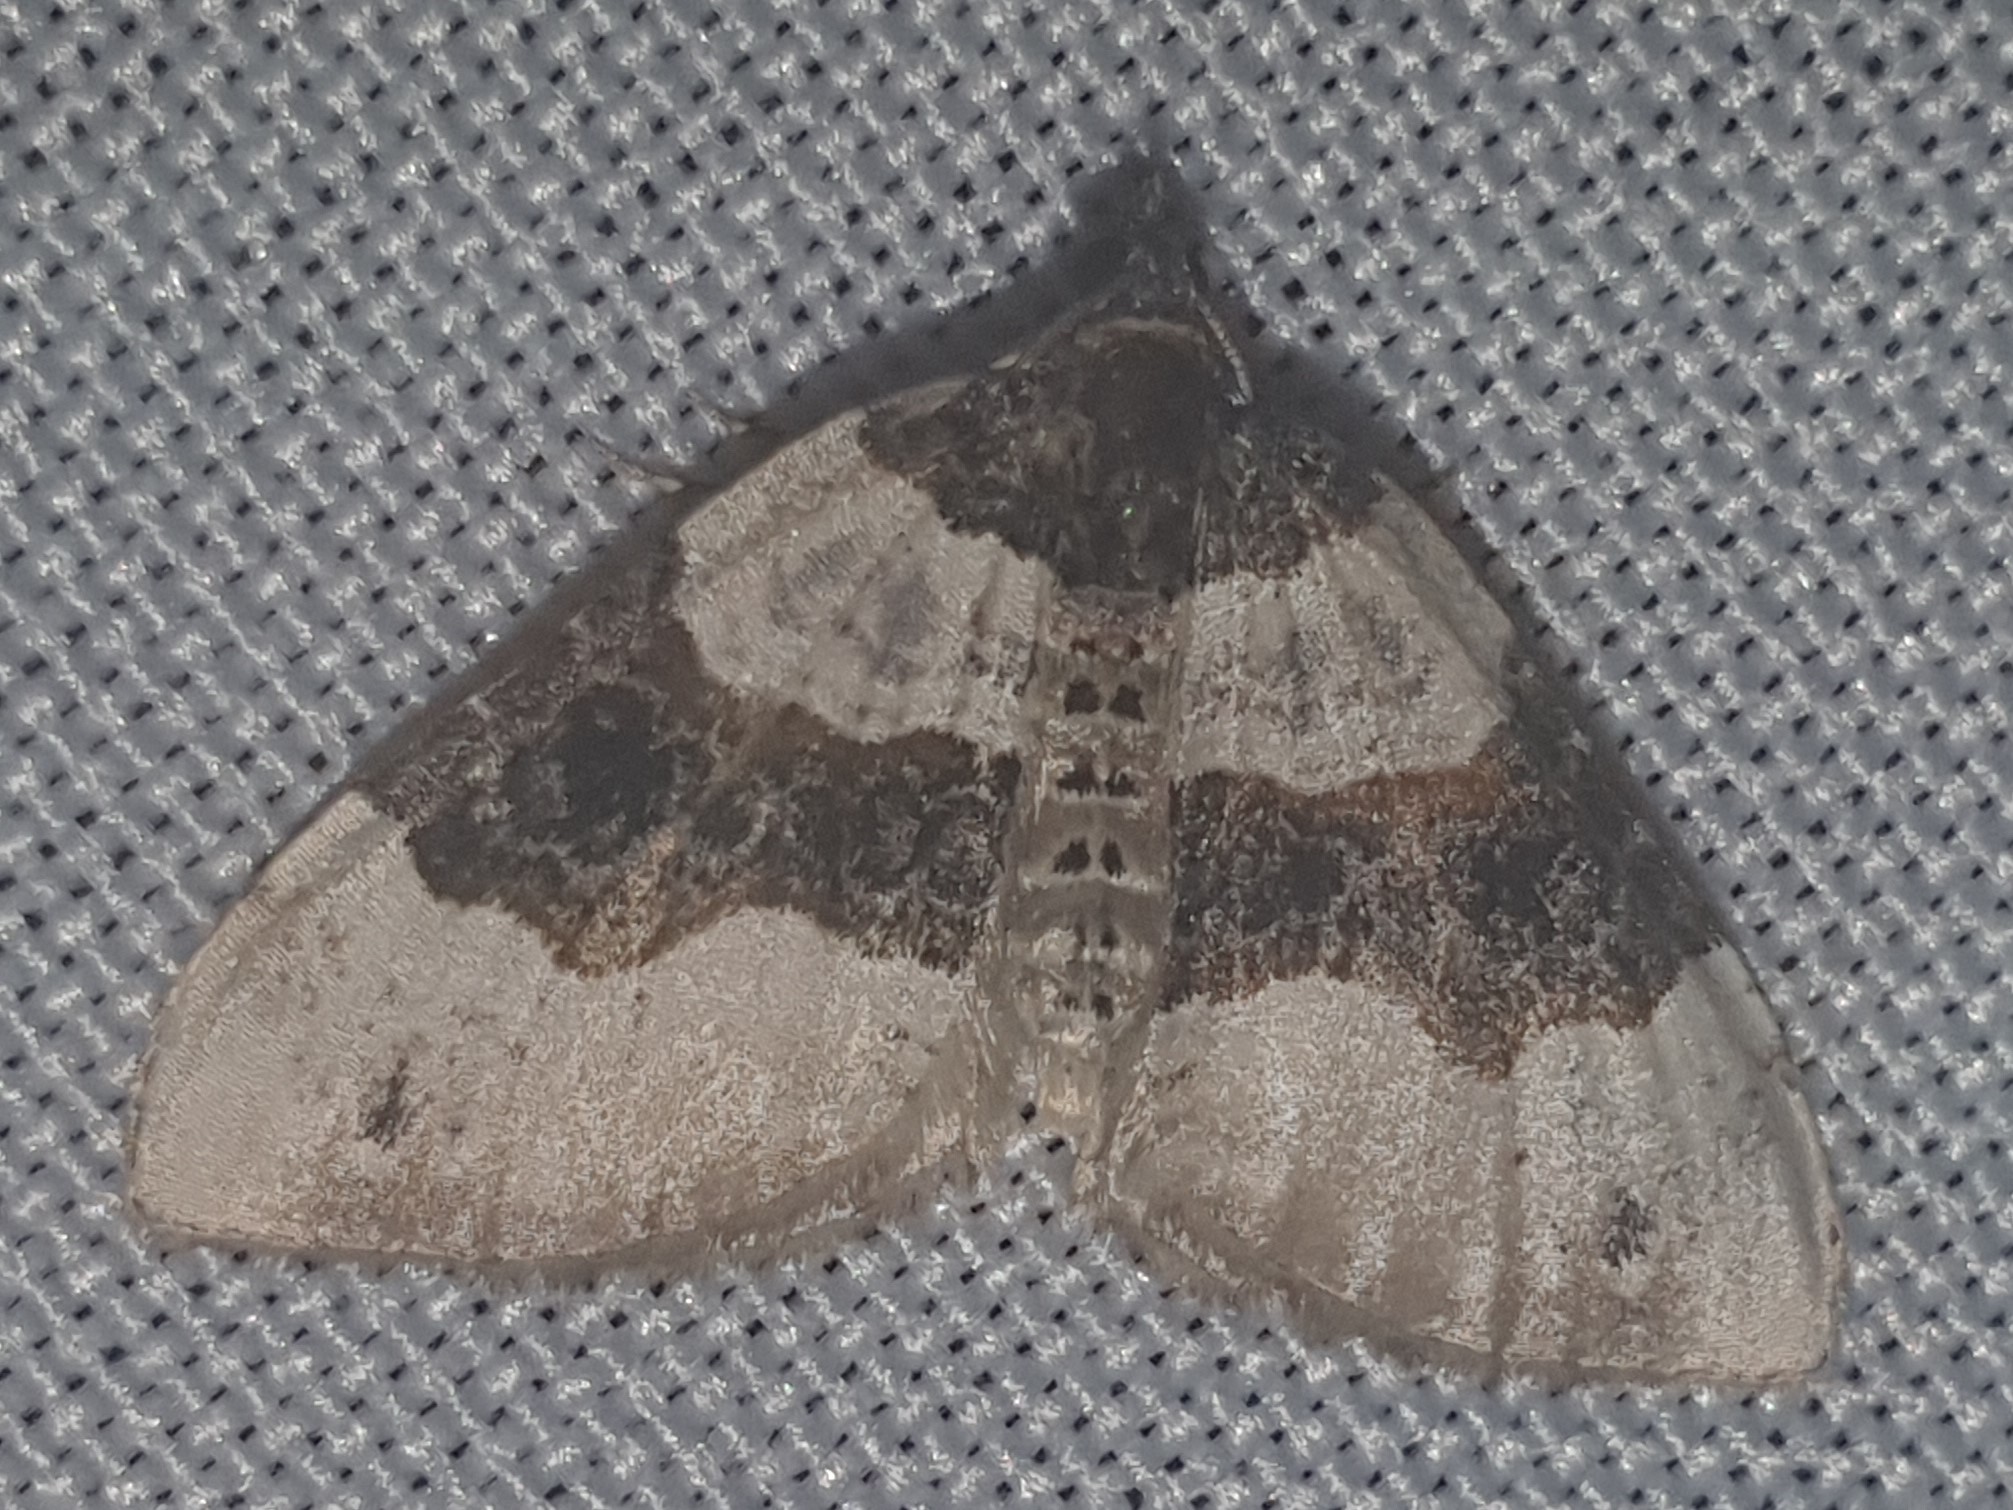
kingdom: Animalia
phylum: Arthropoda
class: Insecta
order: Lepidoptera
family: Geometridae
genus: Cosmorhoe
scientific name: Cosmorhoe ocellata
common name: Purple bar
